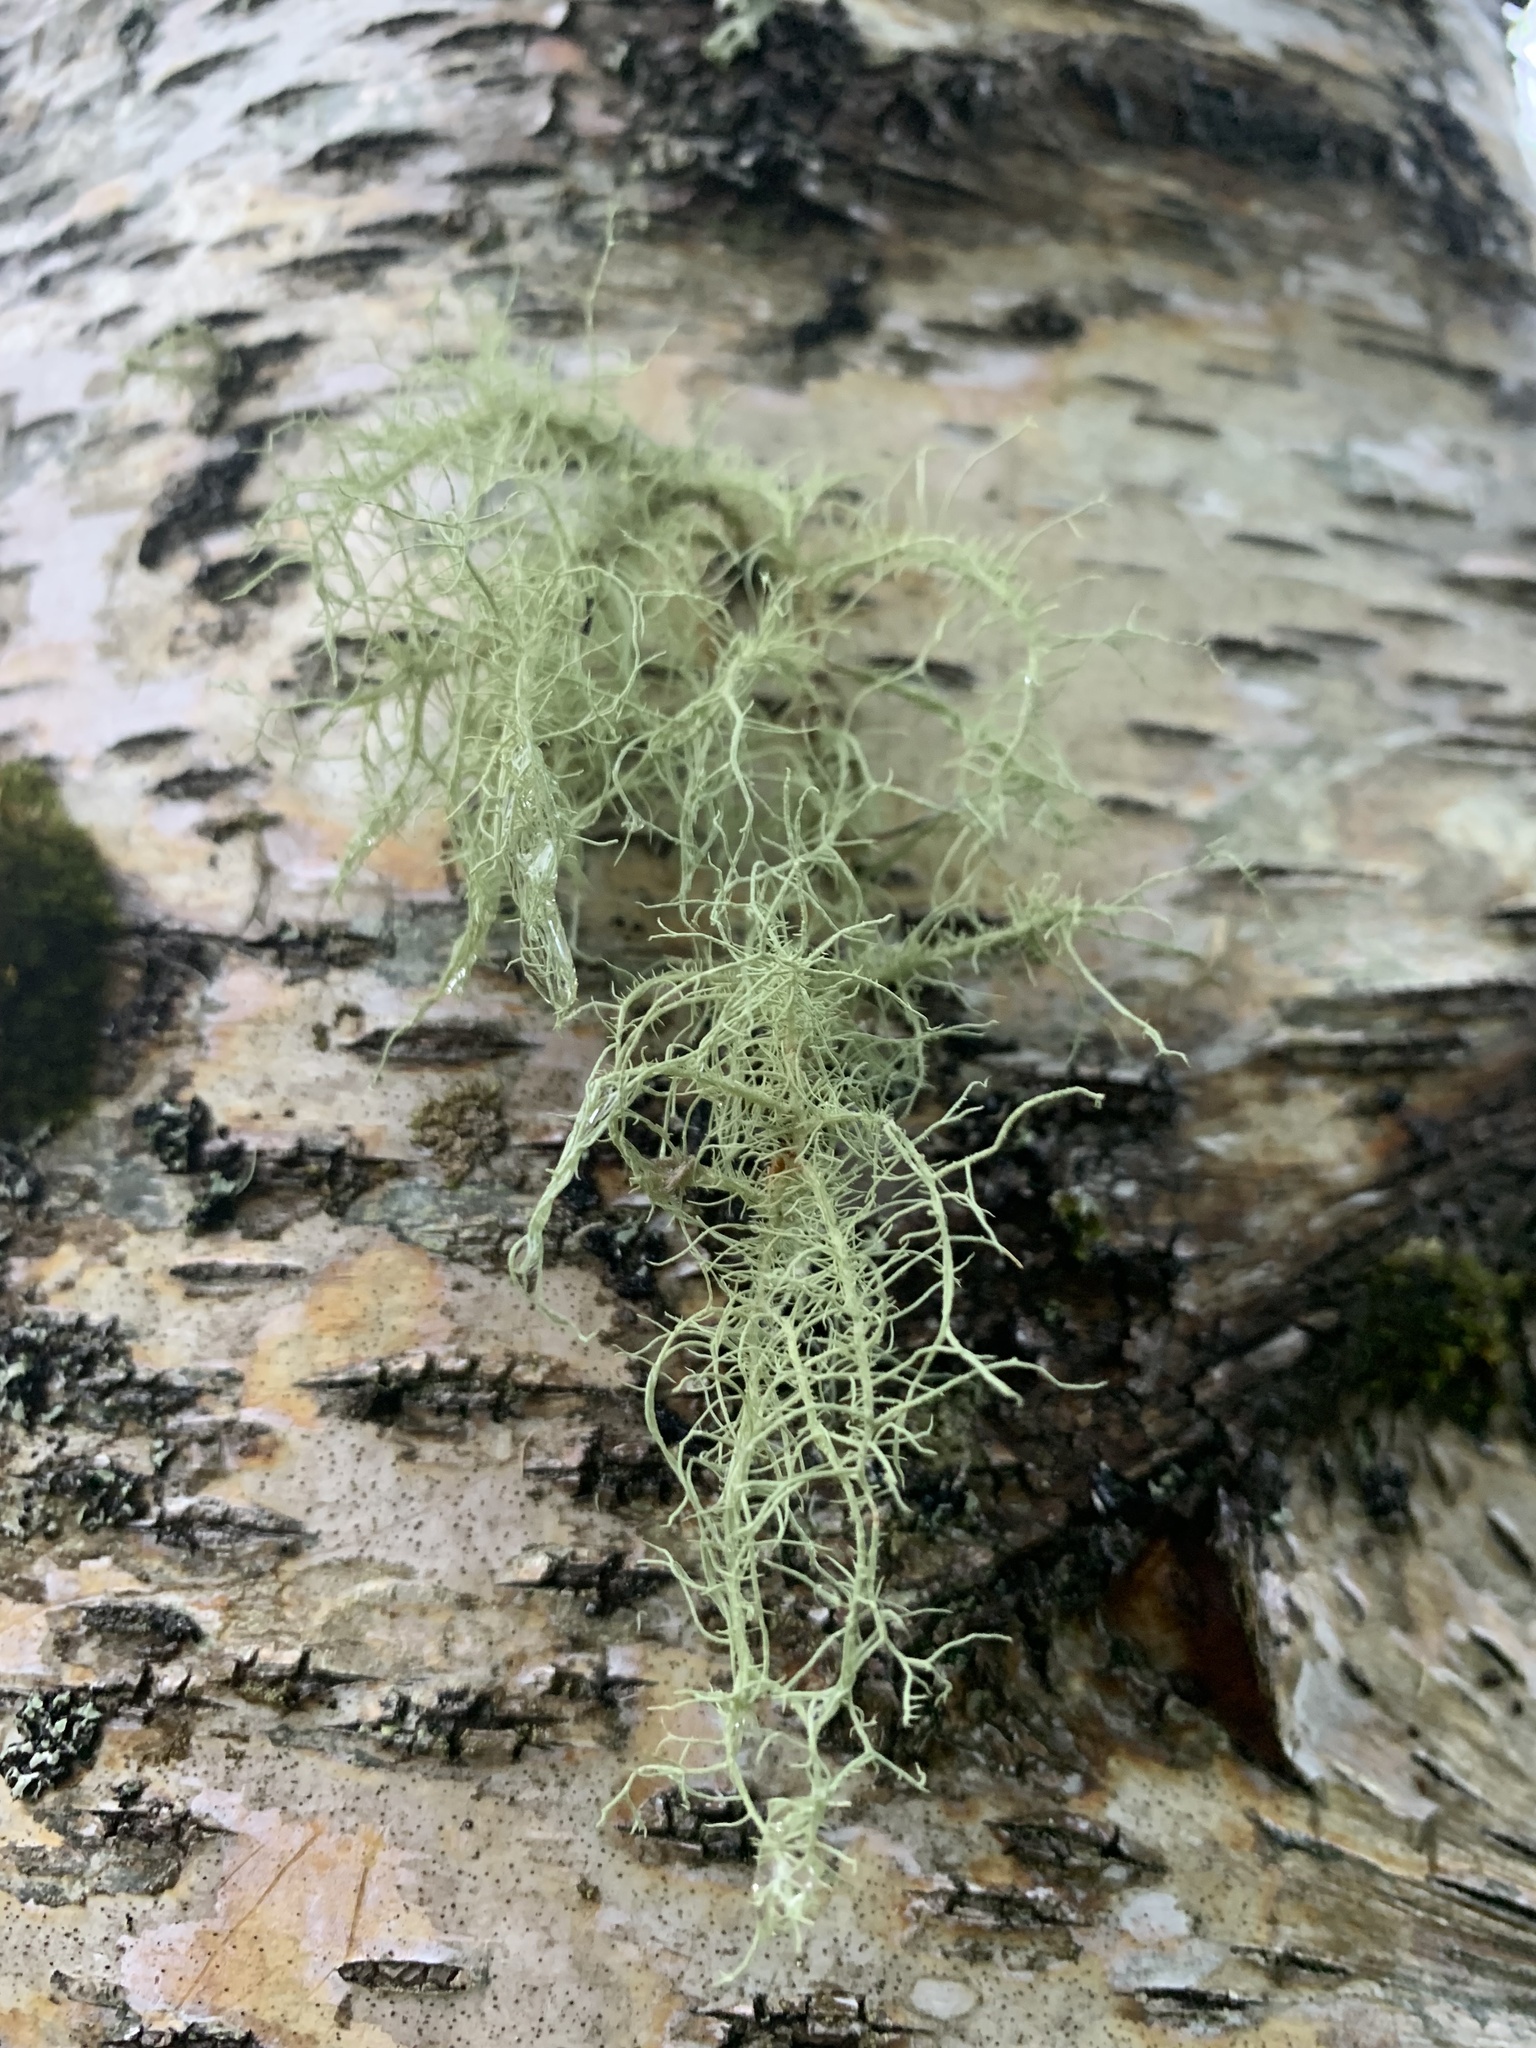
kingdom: Fungi
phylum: Ascomycota
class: Lecanoromycetes
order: Lecanorales
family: Parmeliaceae
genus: Usnea
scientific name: Usnea subfloridana
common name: Boreal beard lichen
